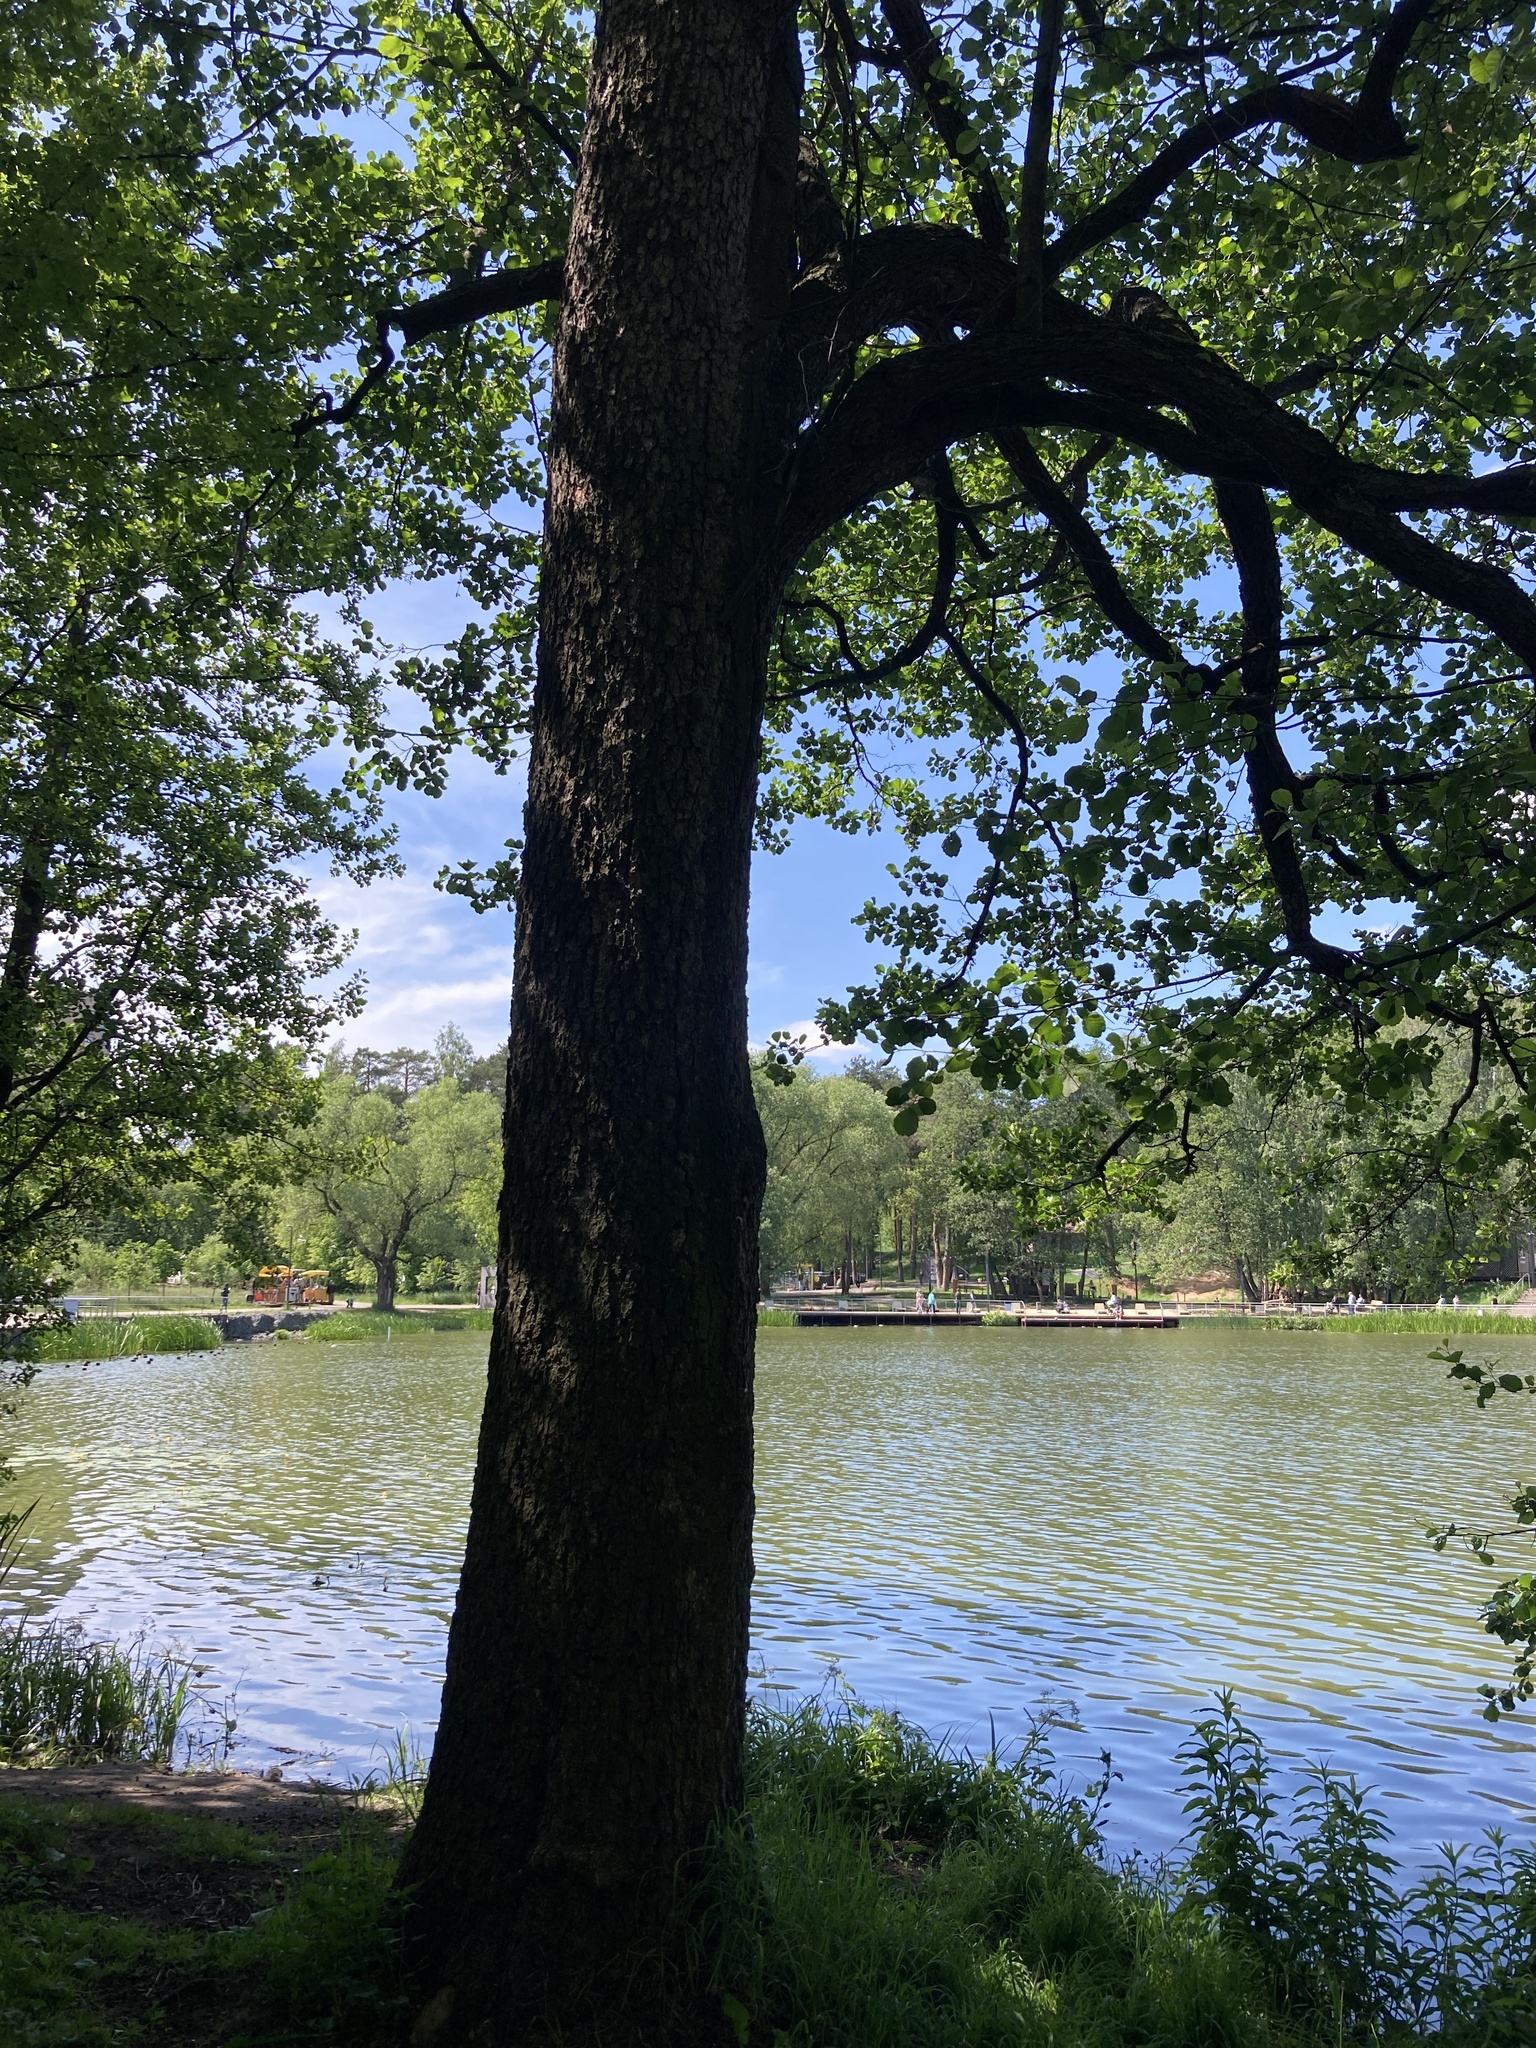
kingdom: Plantae
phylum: Tracheophyta
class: Magnoliopsida
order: Fagales
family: Betulaceae
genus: Alnus
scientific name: Alnus glutinosa
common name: Black alder
